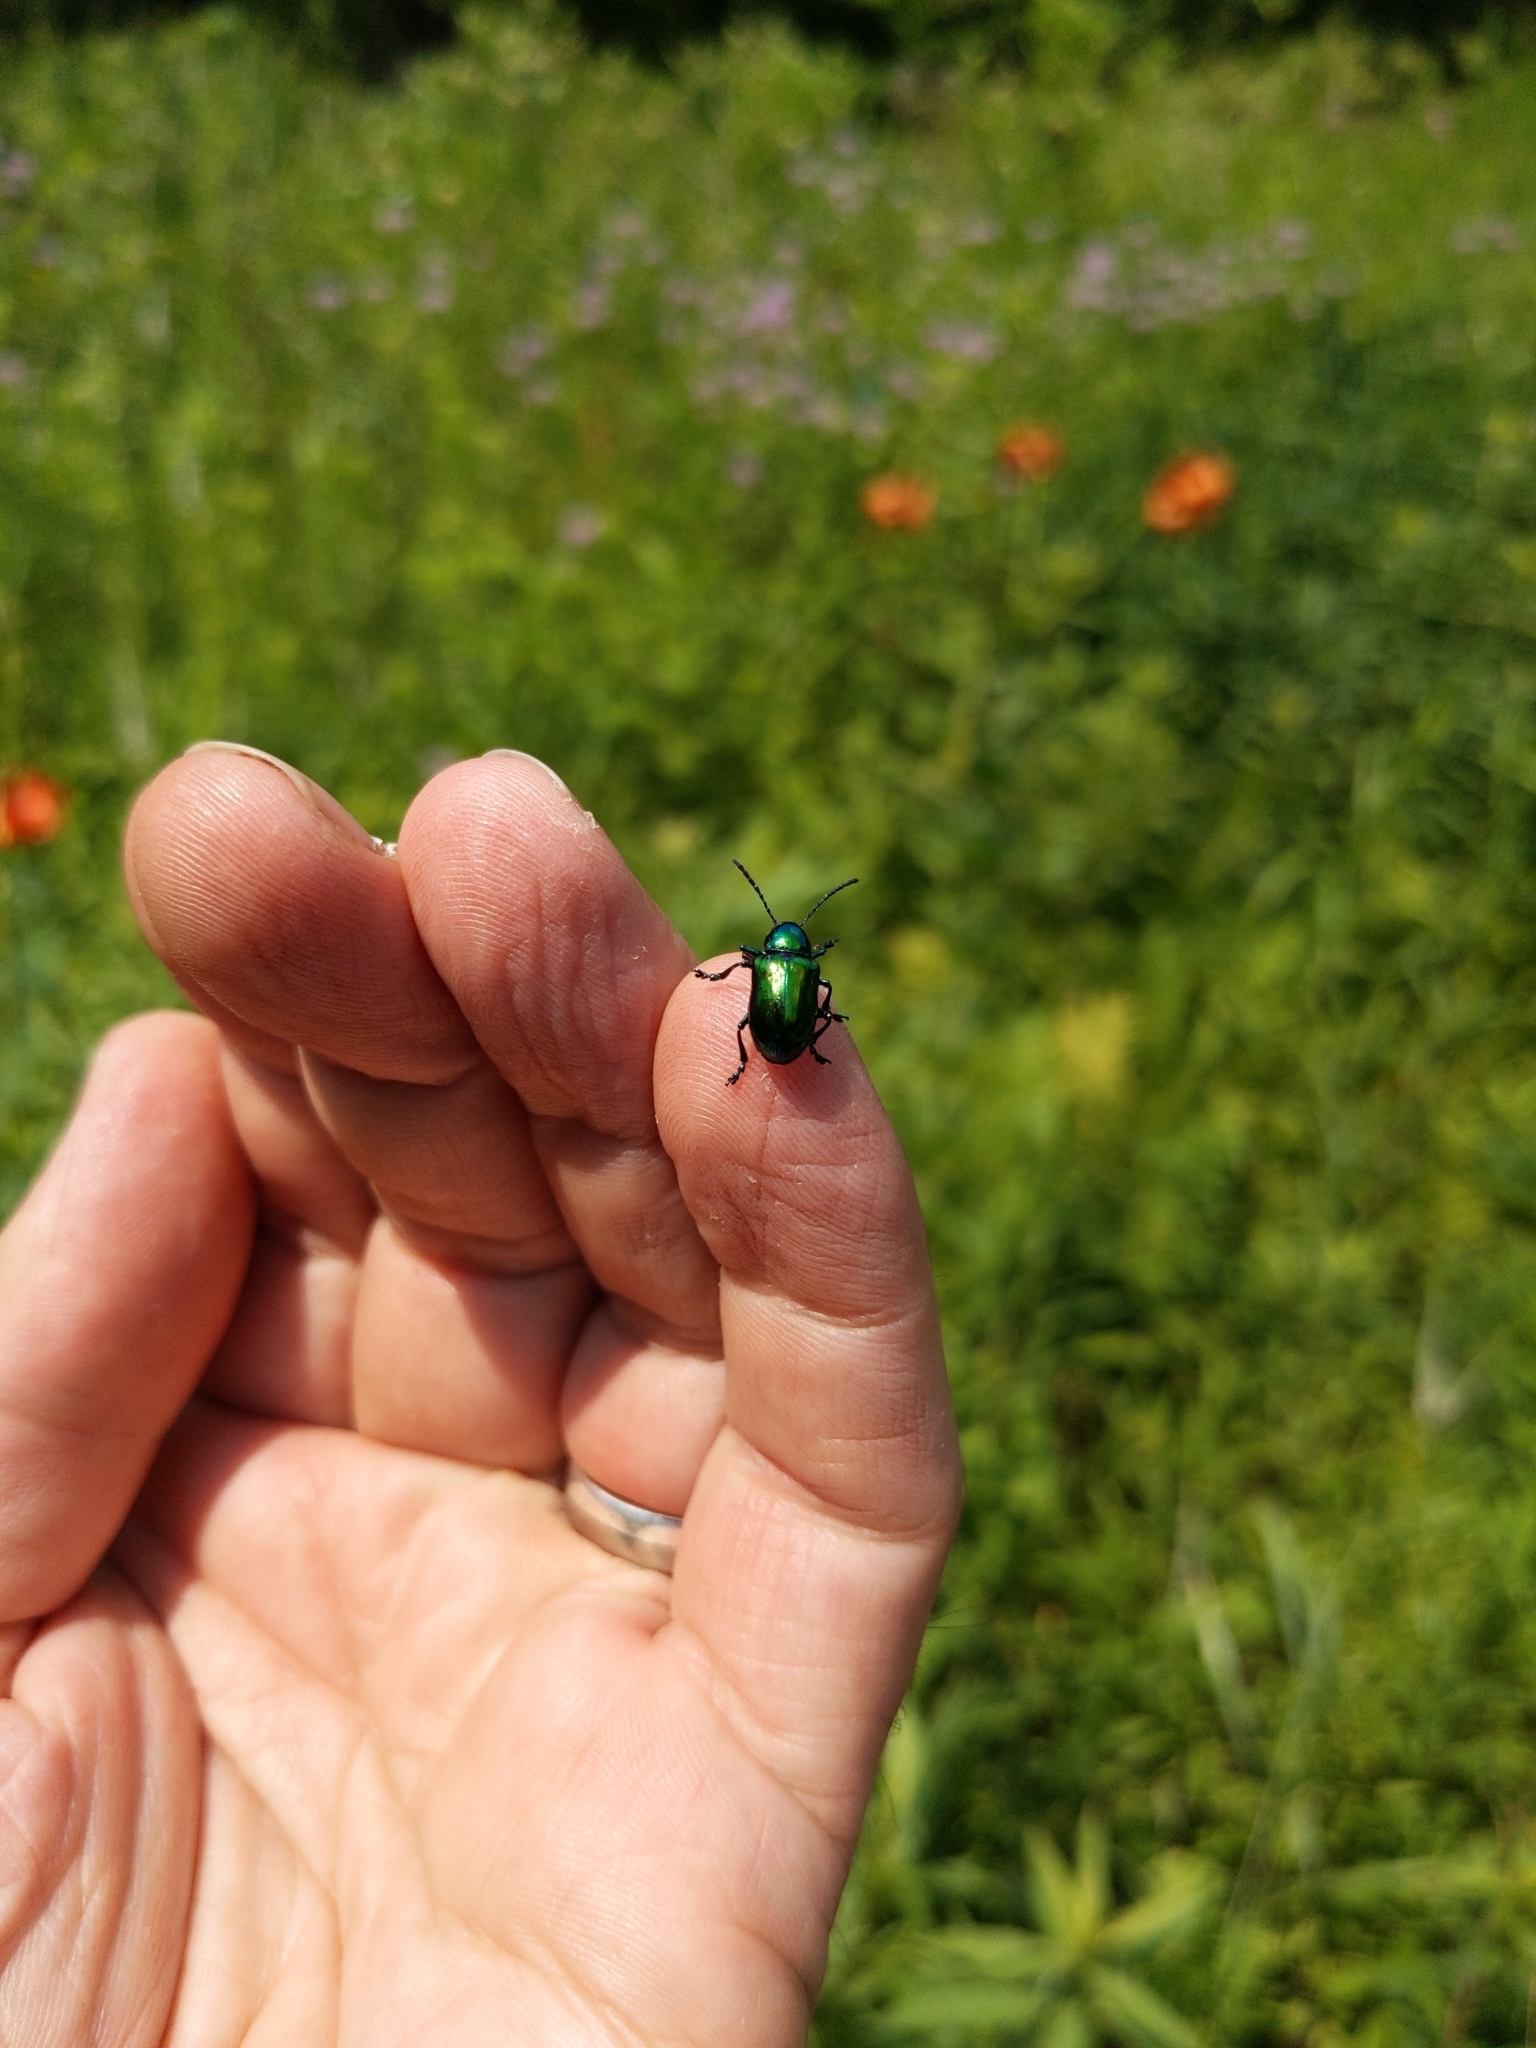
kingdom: Animalia
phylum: Arthropoda
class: Insecta
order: Coleoptera
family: Chrysomelidae
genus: Chrysochus
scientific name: Chrysochus auratus
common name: Dogbane leaf beetle
